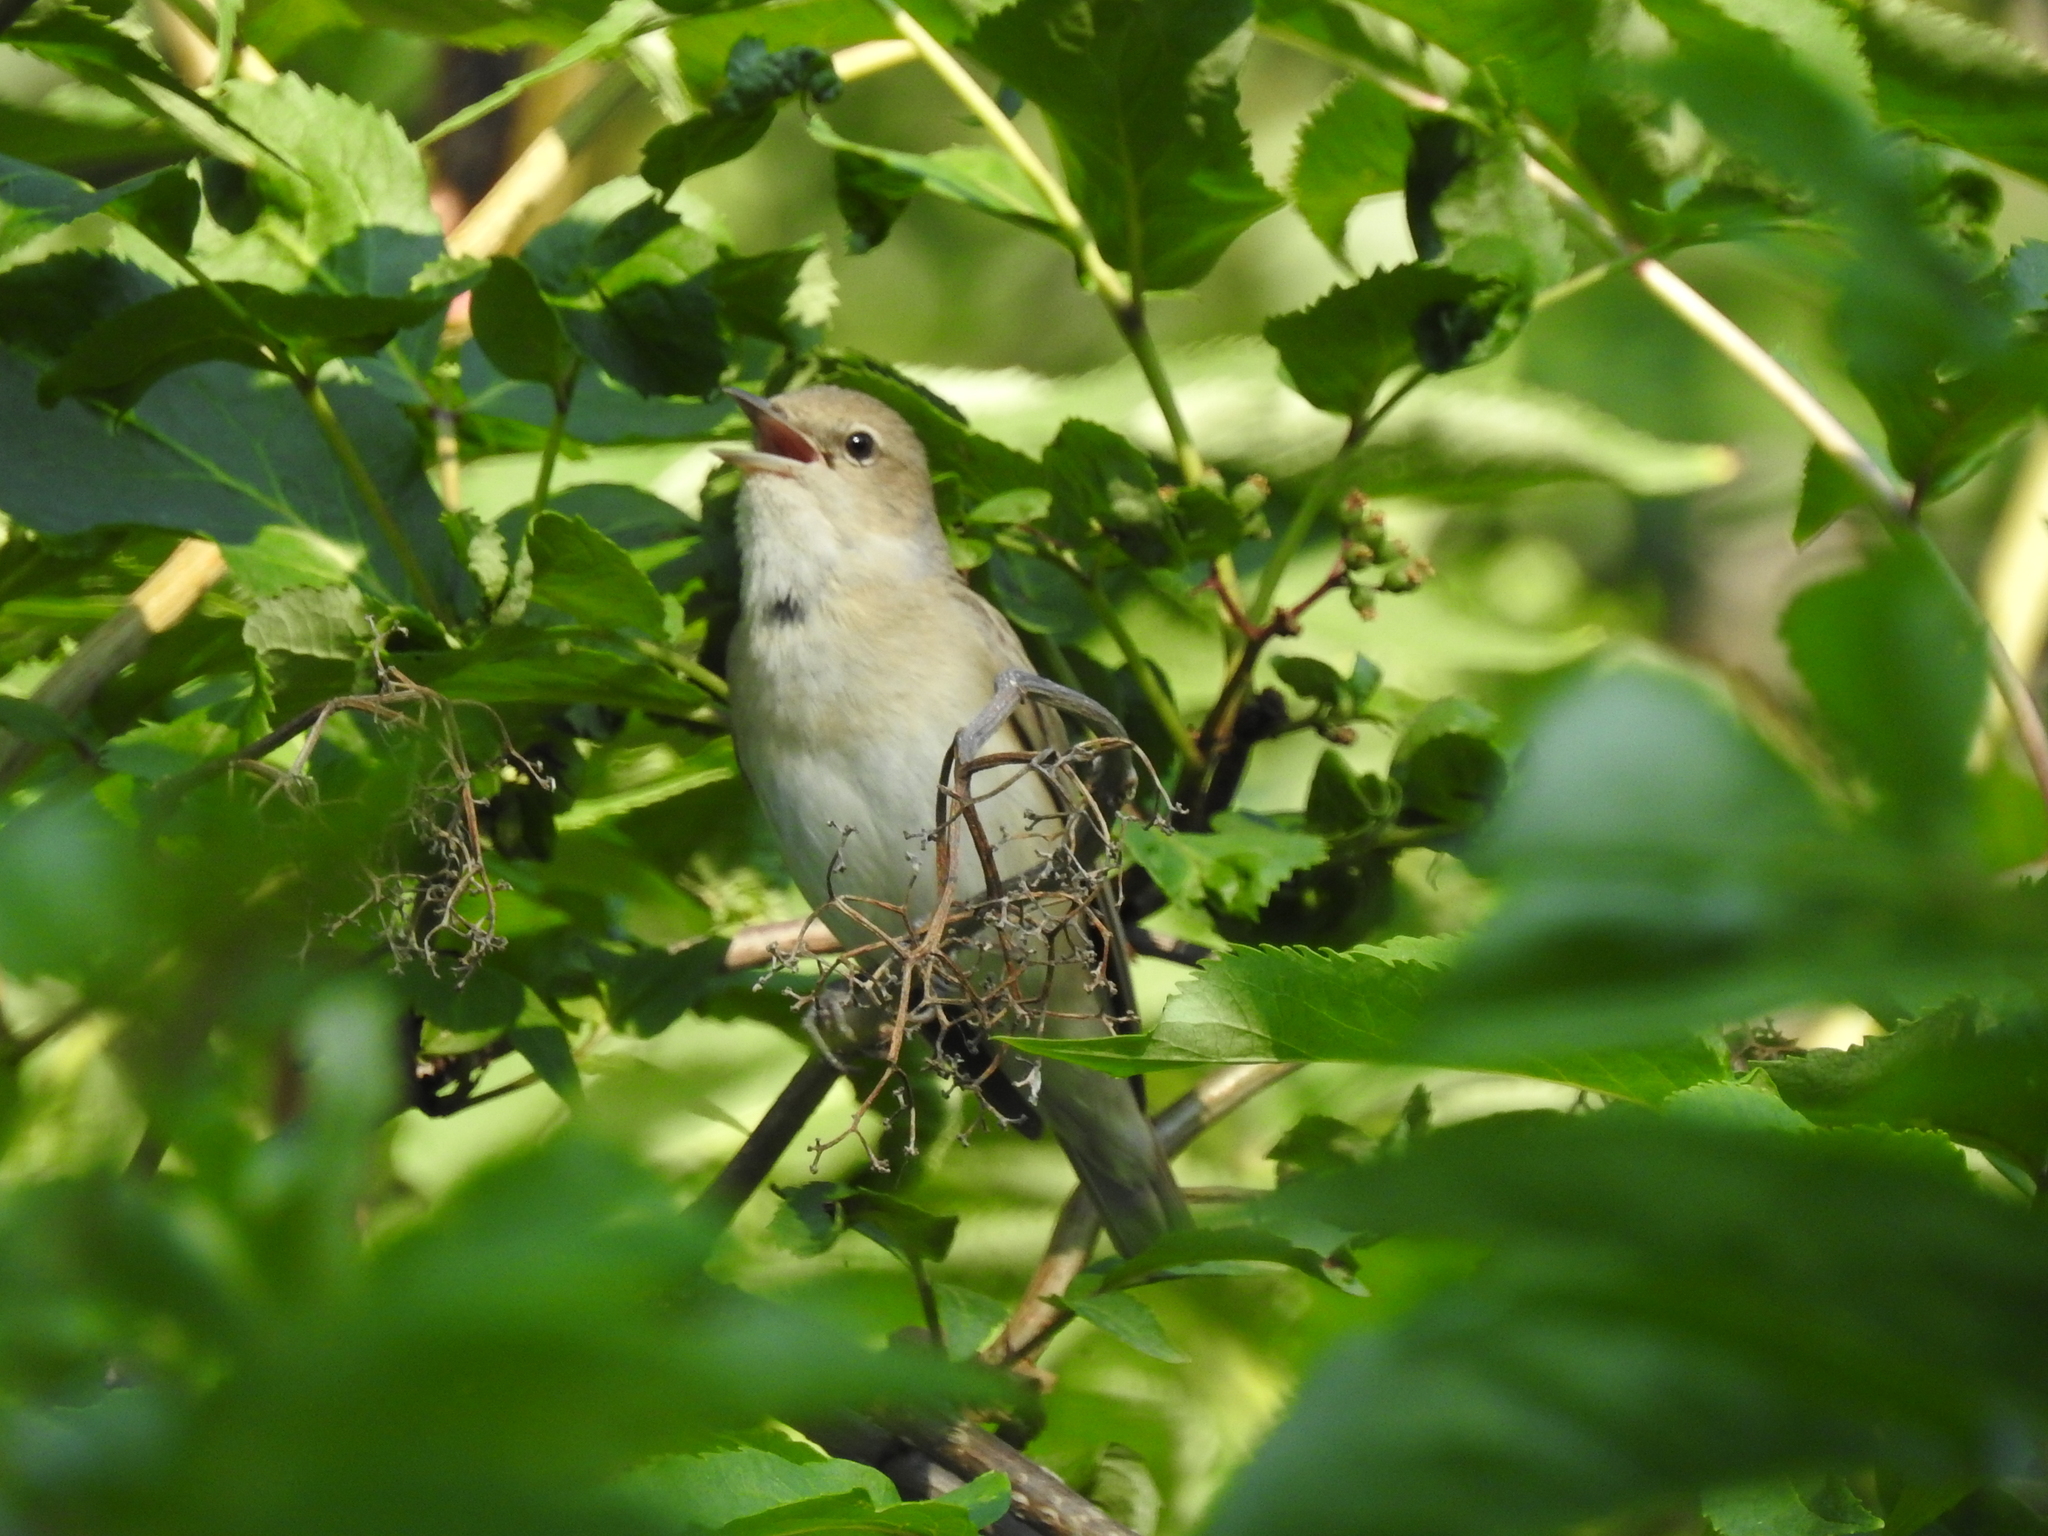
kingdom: Animalia
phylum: Chordata
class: Aves
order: Passeriformes
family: Sylviidae
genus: Sylvia
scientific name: Sylvia borin
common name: Garden warbler
